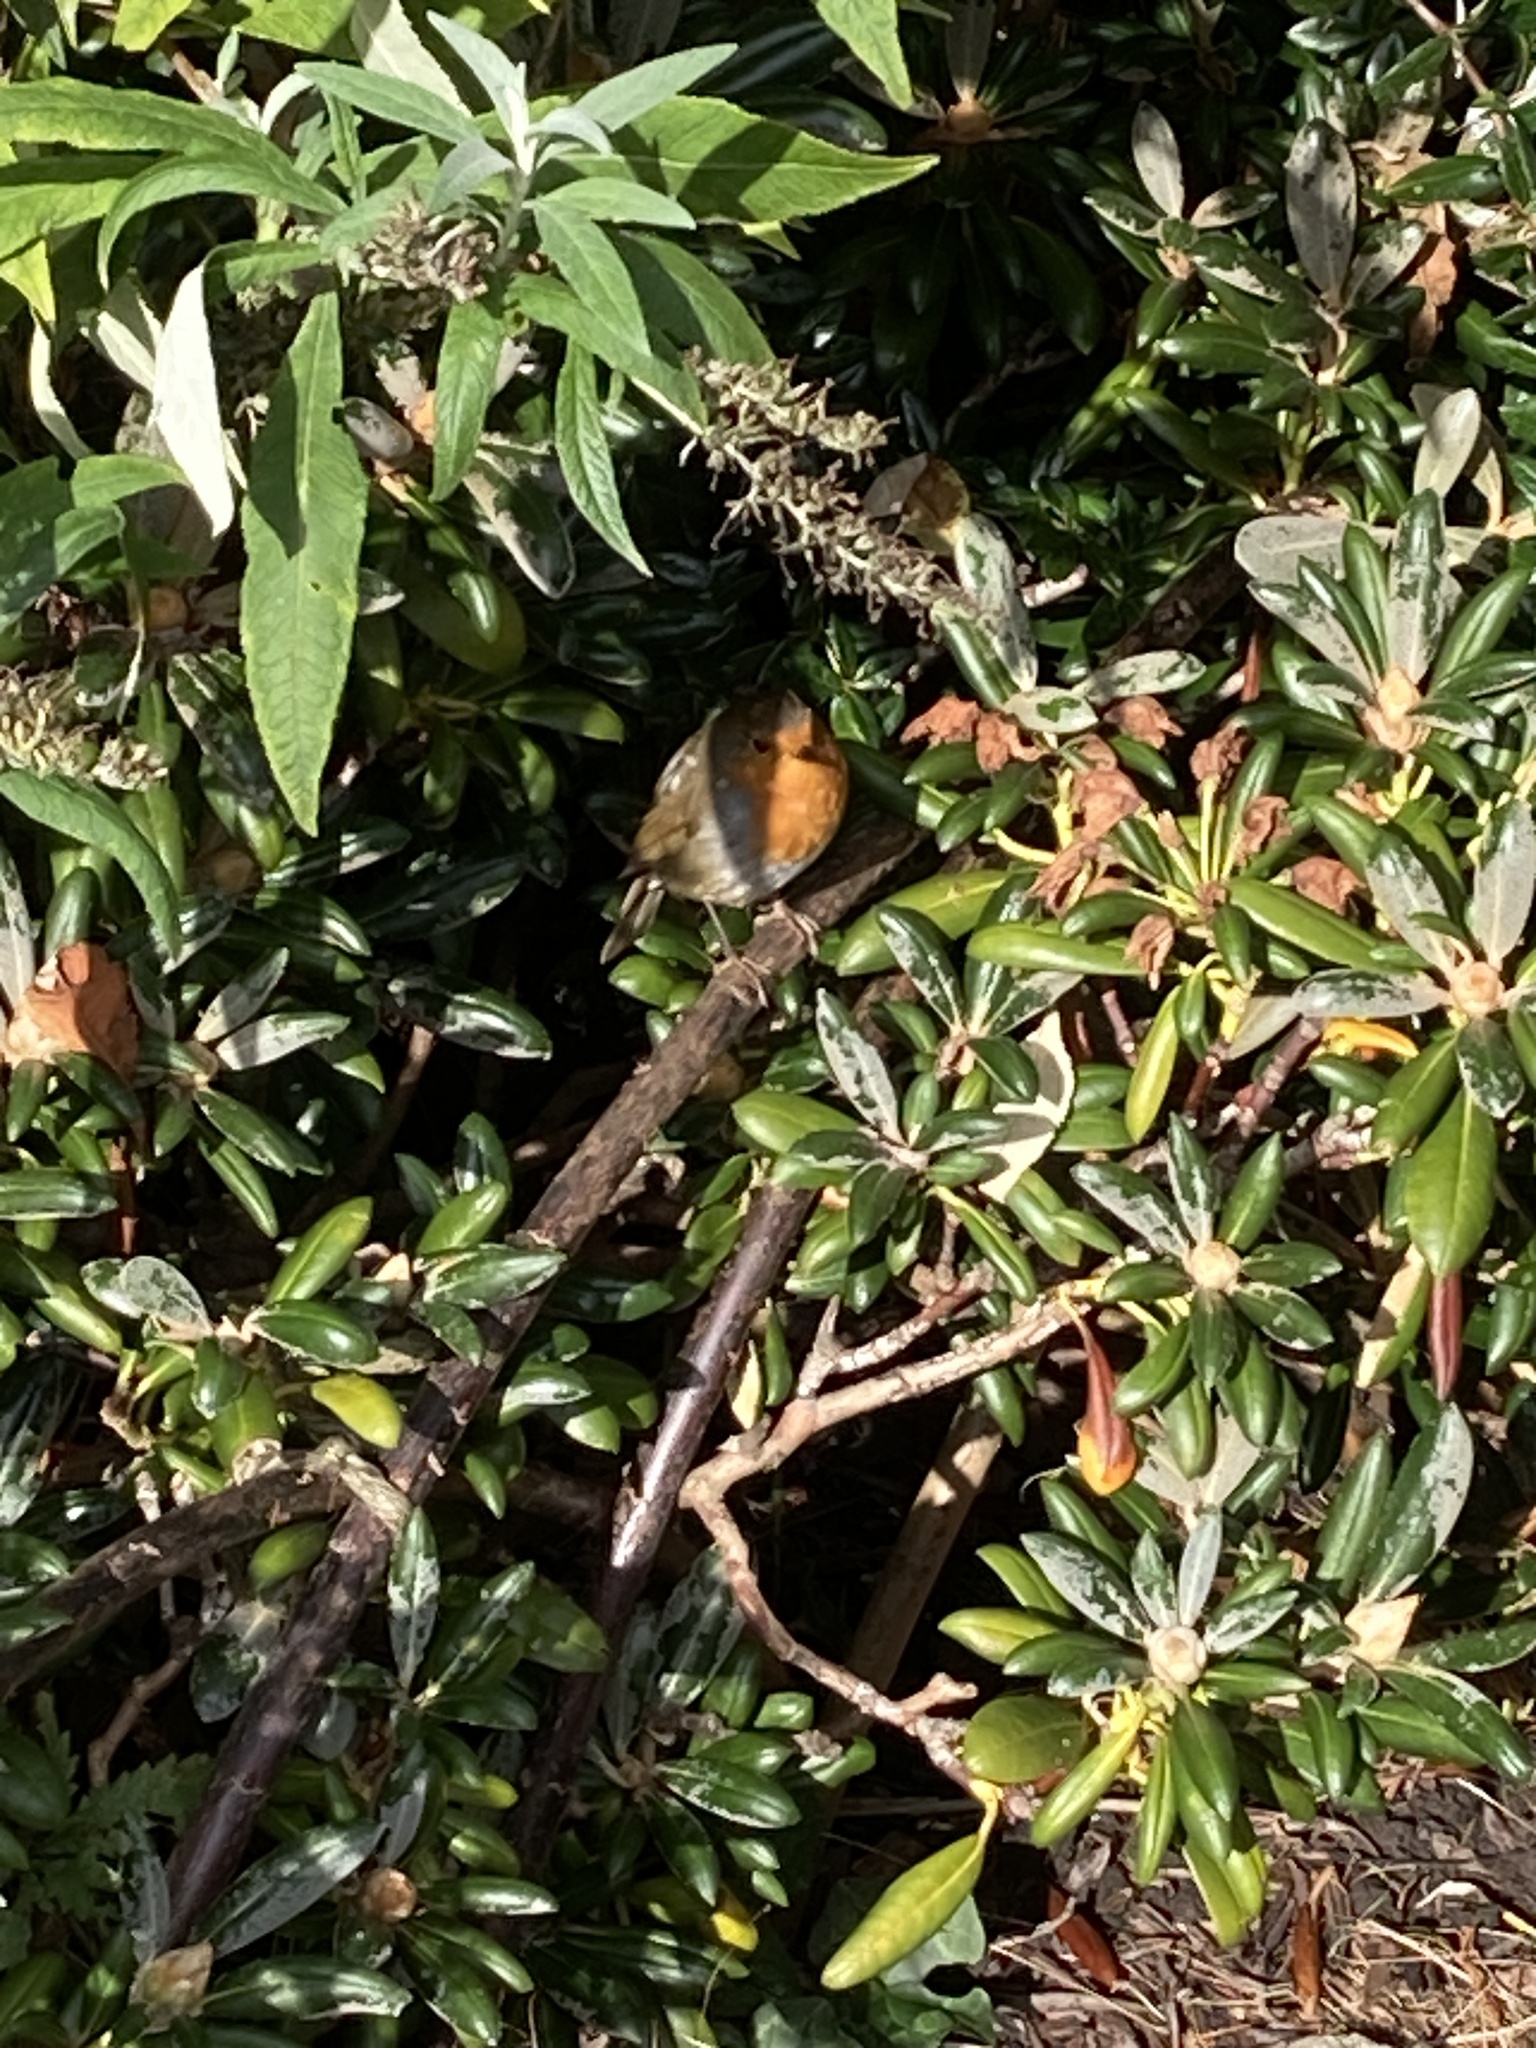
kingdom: Animalia
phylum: Chordata
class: Aves
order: Passeriformes
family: Muscicapidae
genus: Erithacus
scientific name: Erithacus rubecula
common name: European robin
